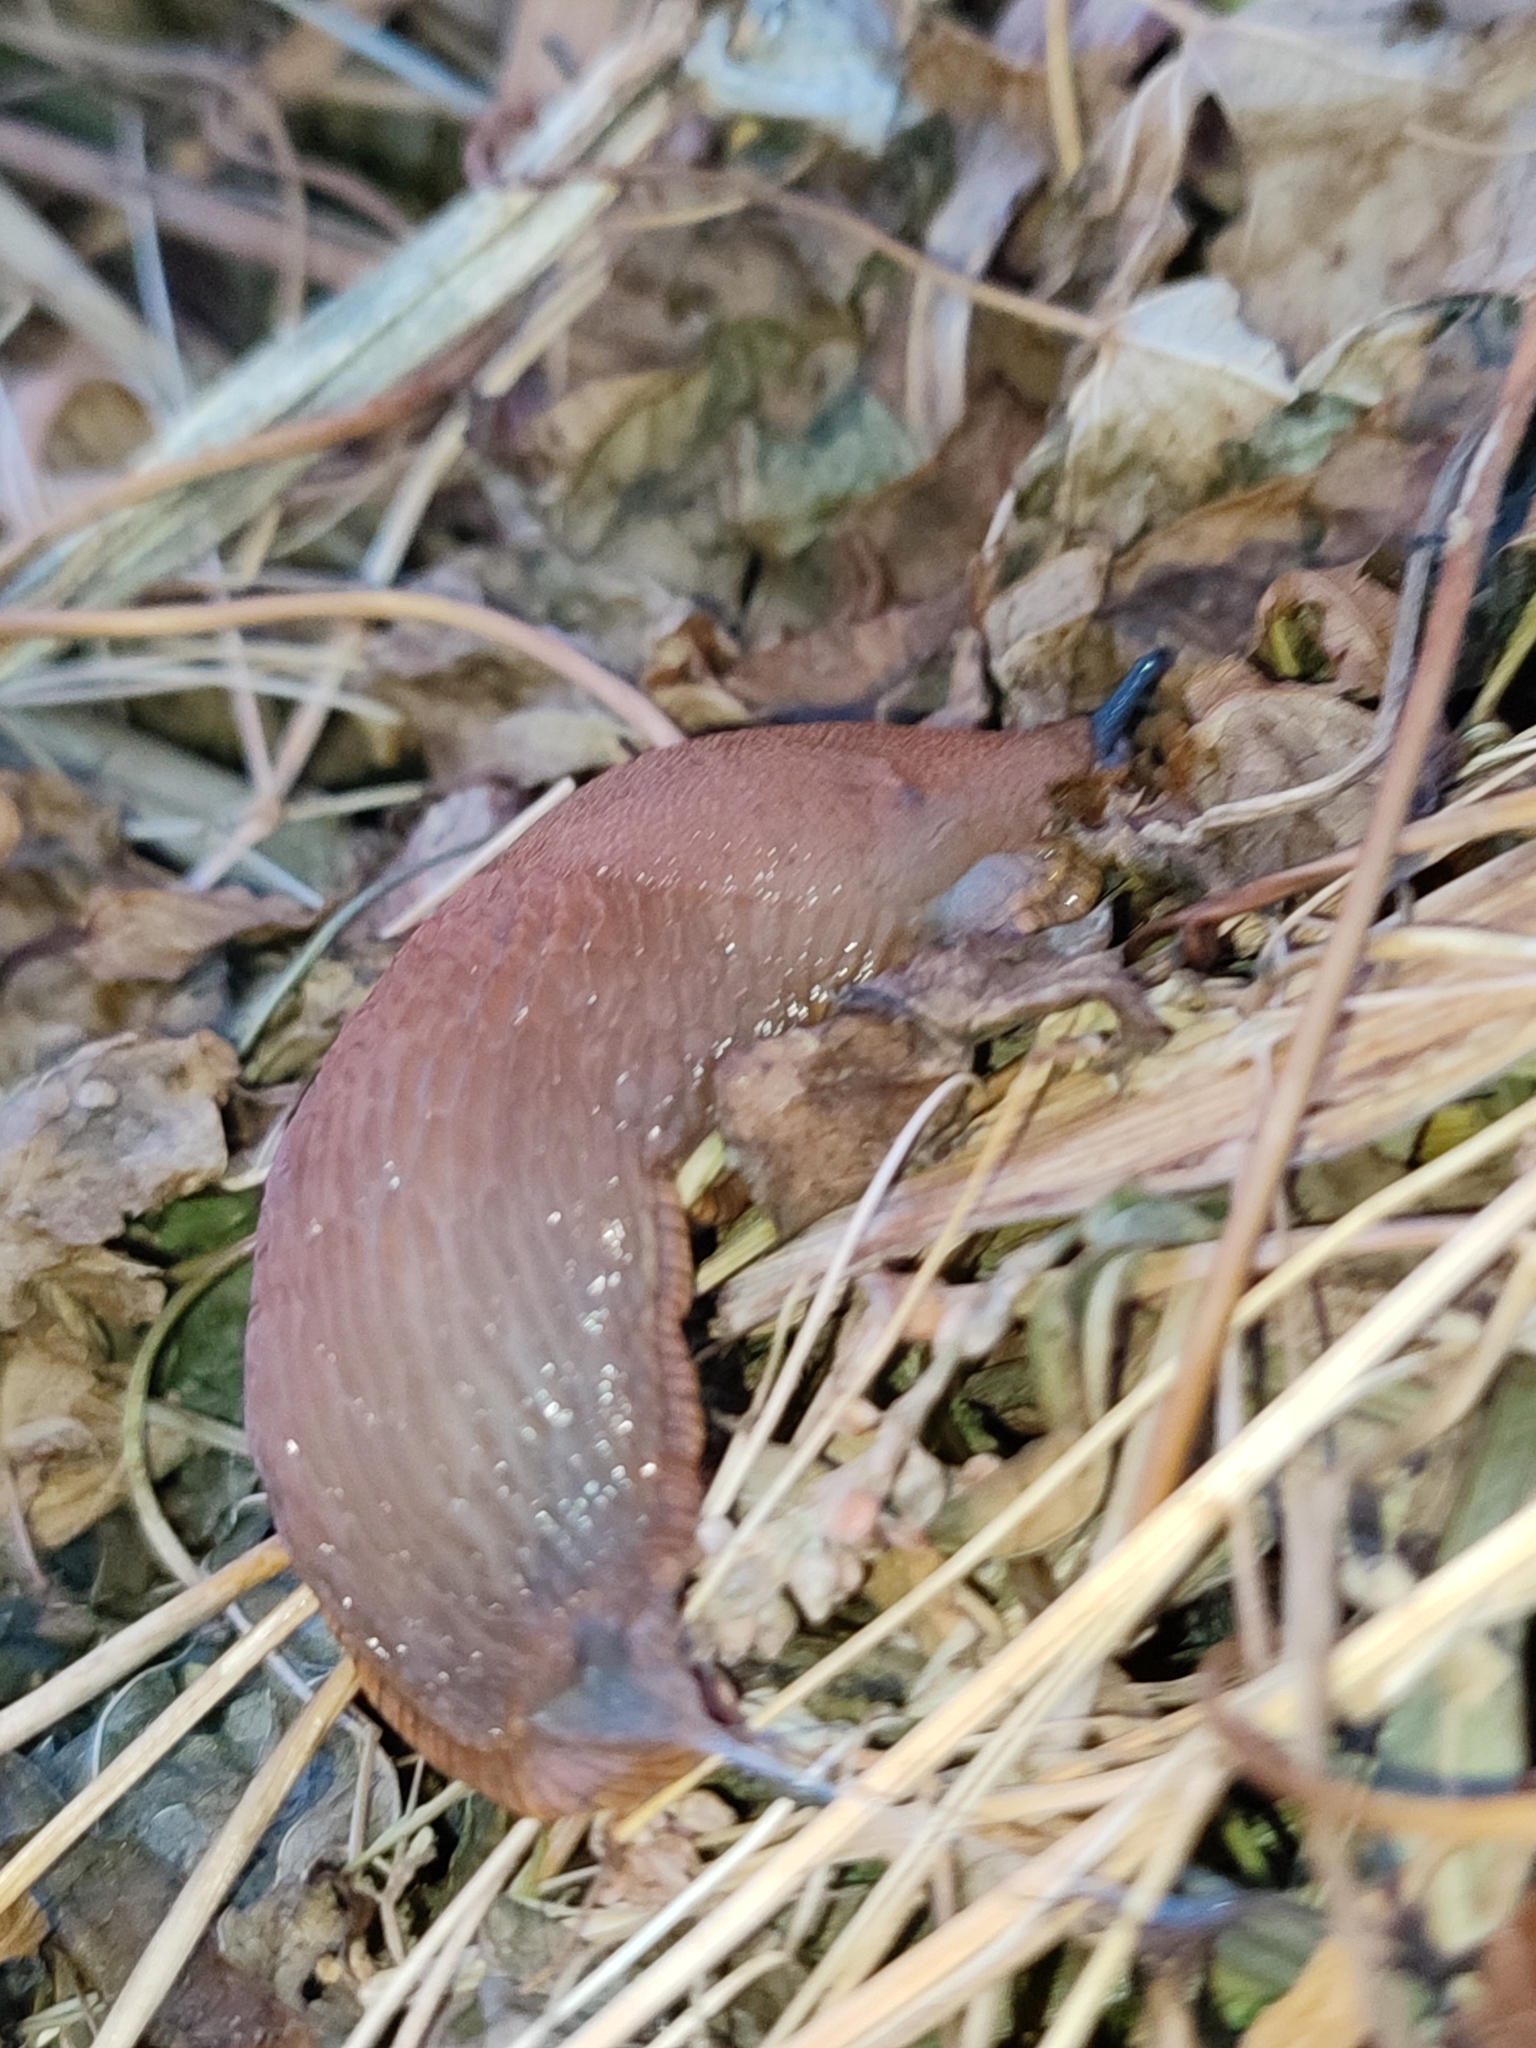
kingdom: Animalia
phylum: Mollusca
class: Gastropoda
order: Stylommatophora
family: Arionidae
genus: Arion
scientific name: Arion vulgaris
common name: Lusitanian slug
